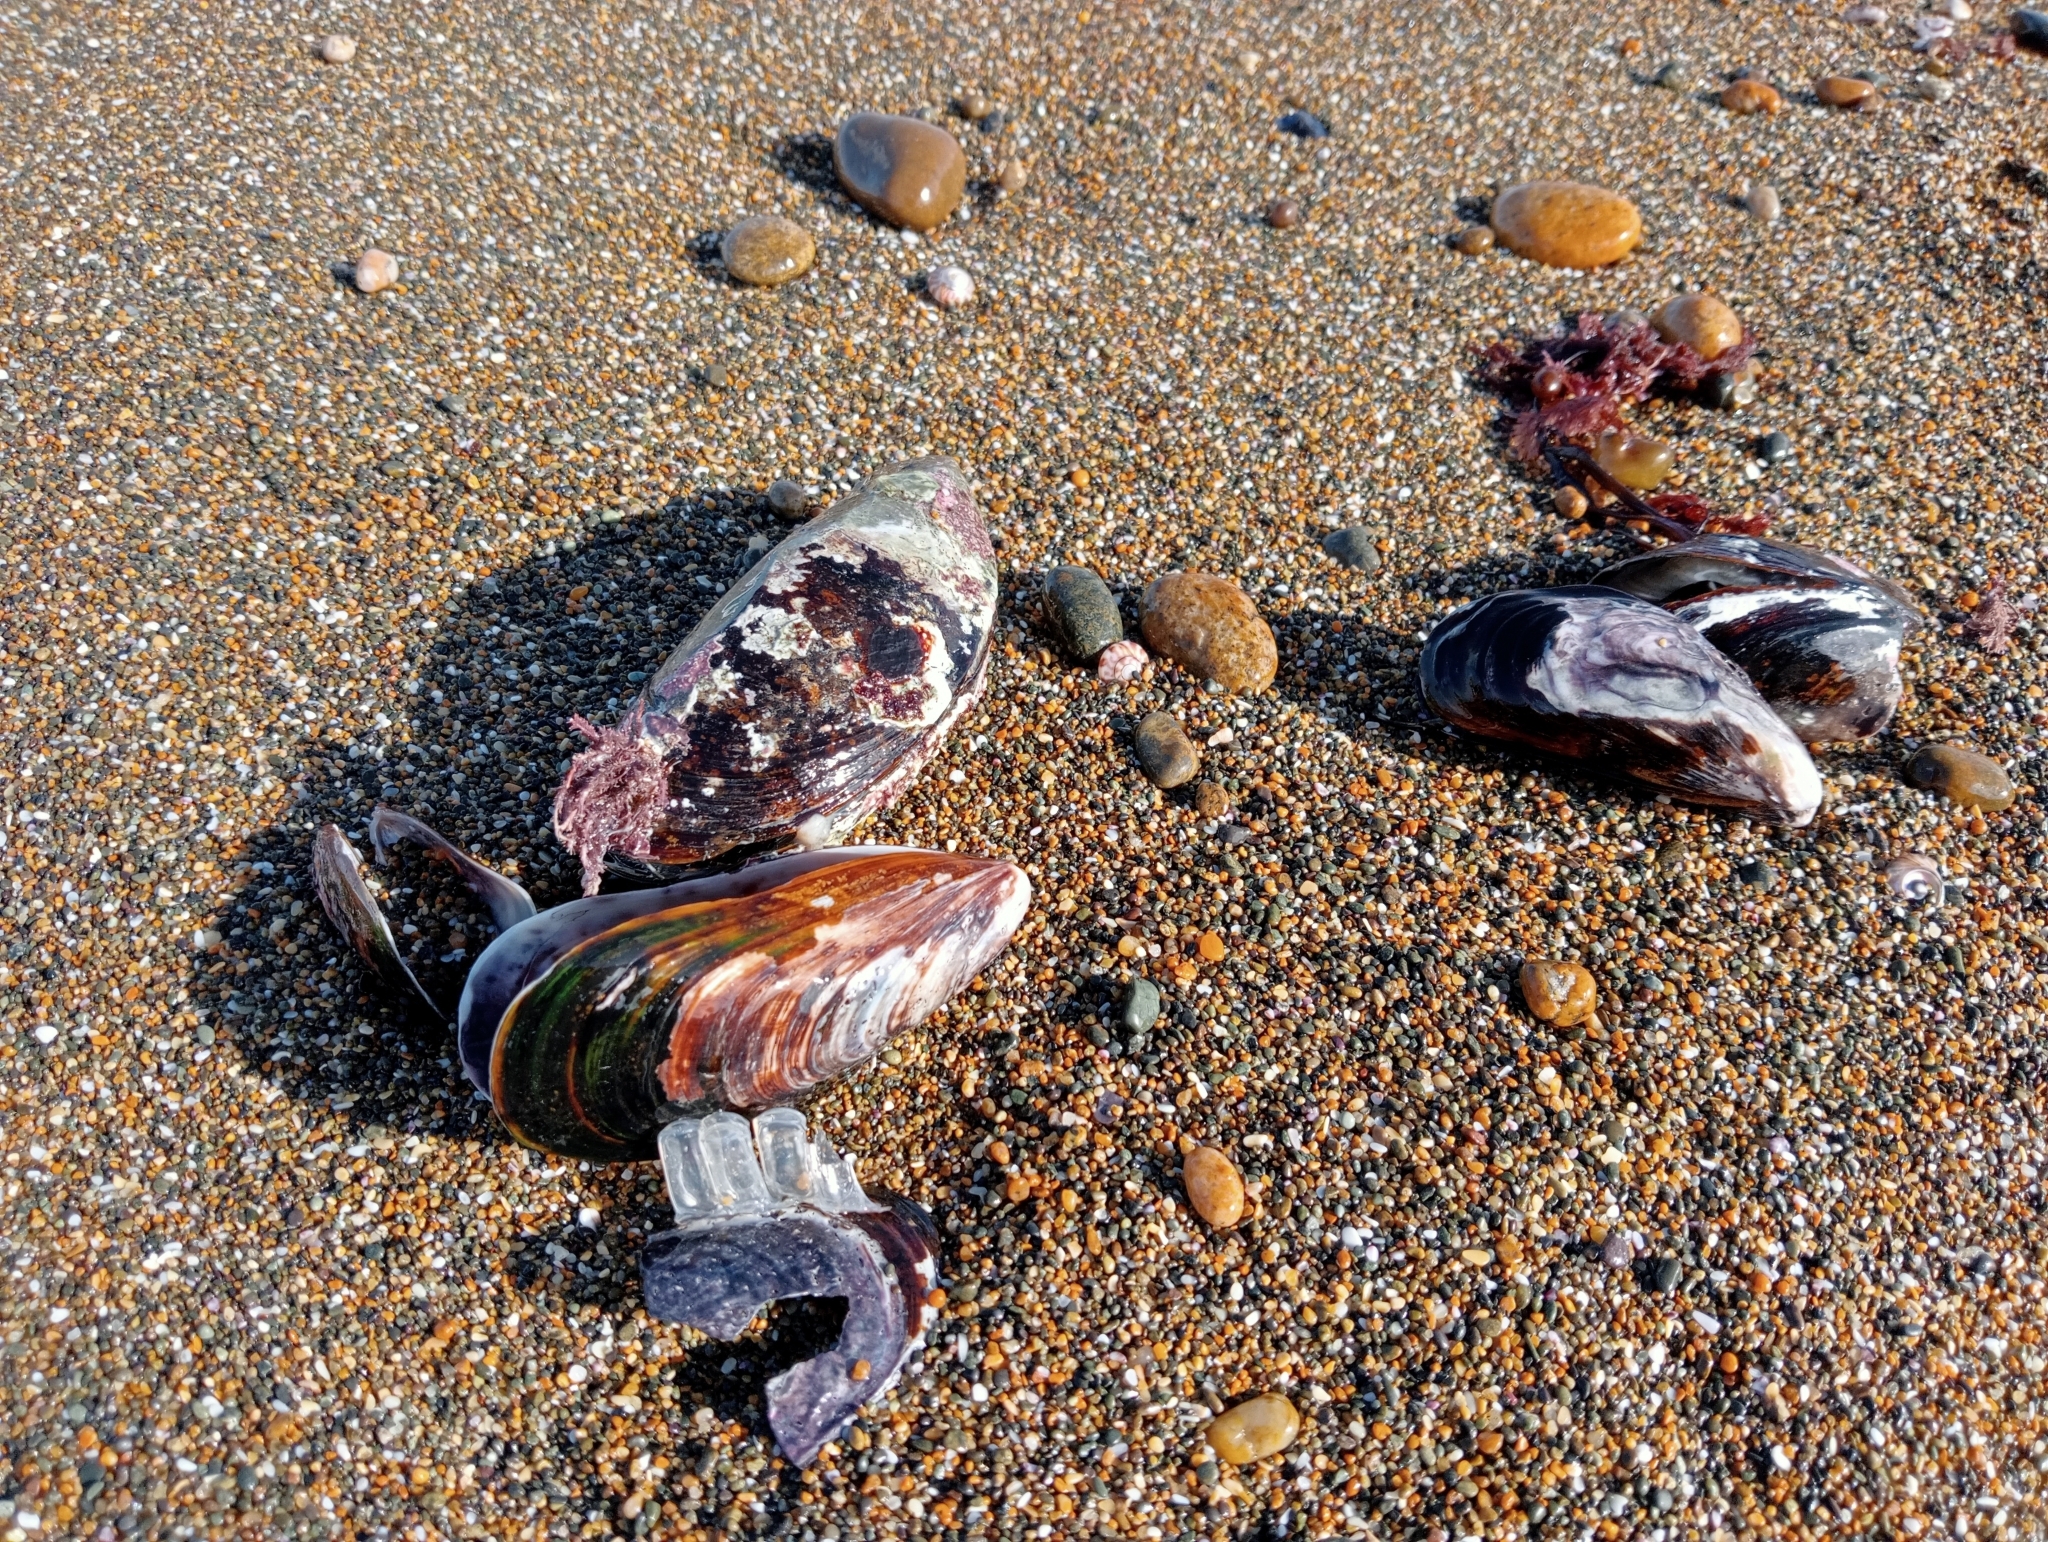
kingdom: Animalia
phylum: Mollusca
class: Bivalvia
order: Mytilida
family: Mytilidae
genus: Perna
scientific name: Perna canaliculus
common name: New zealand greenshelltm
